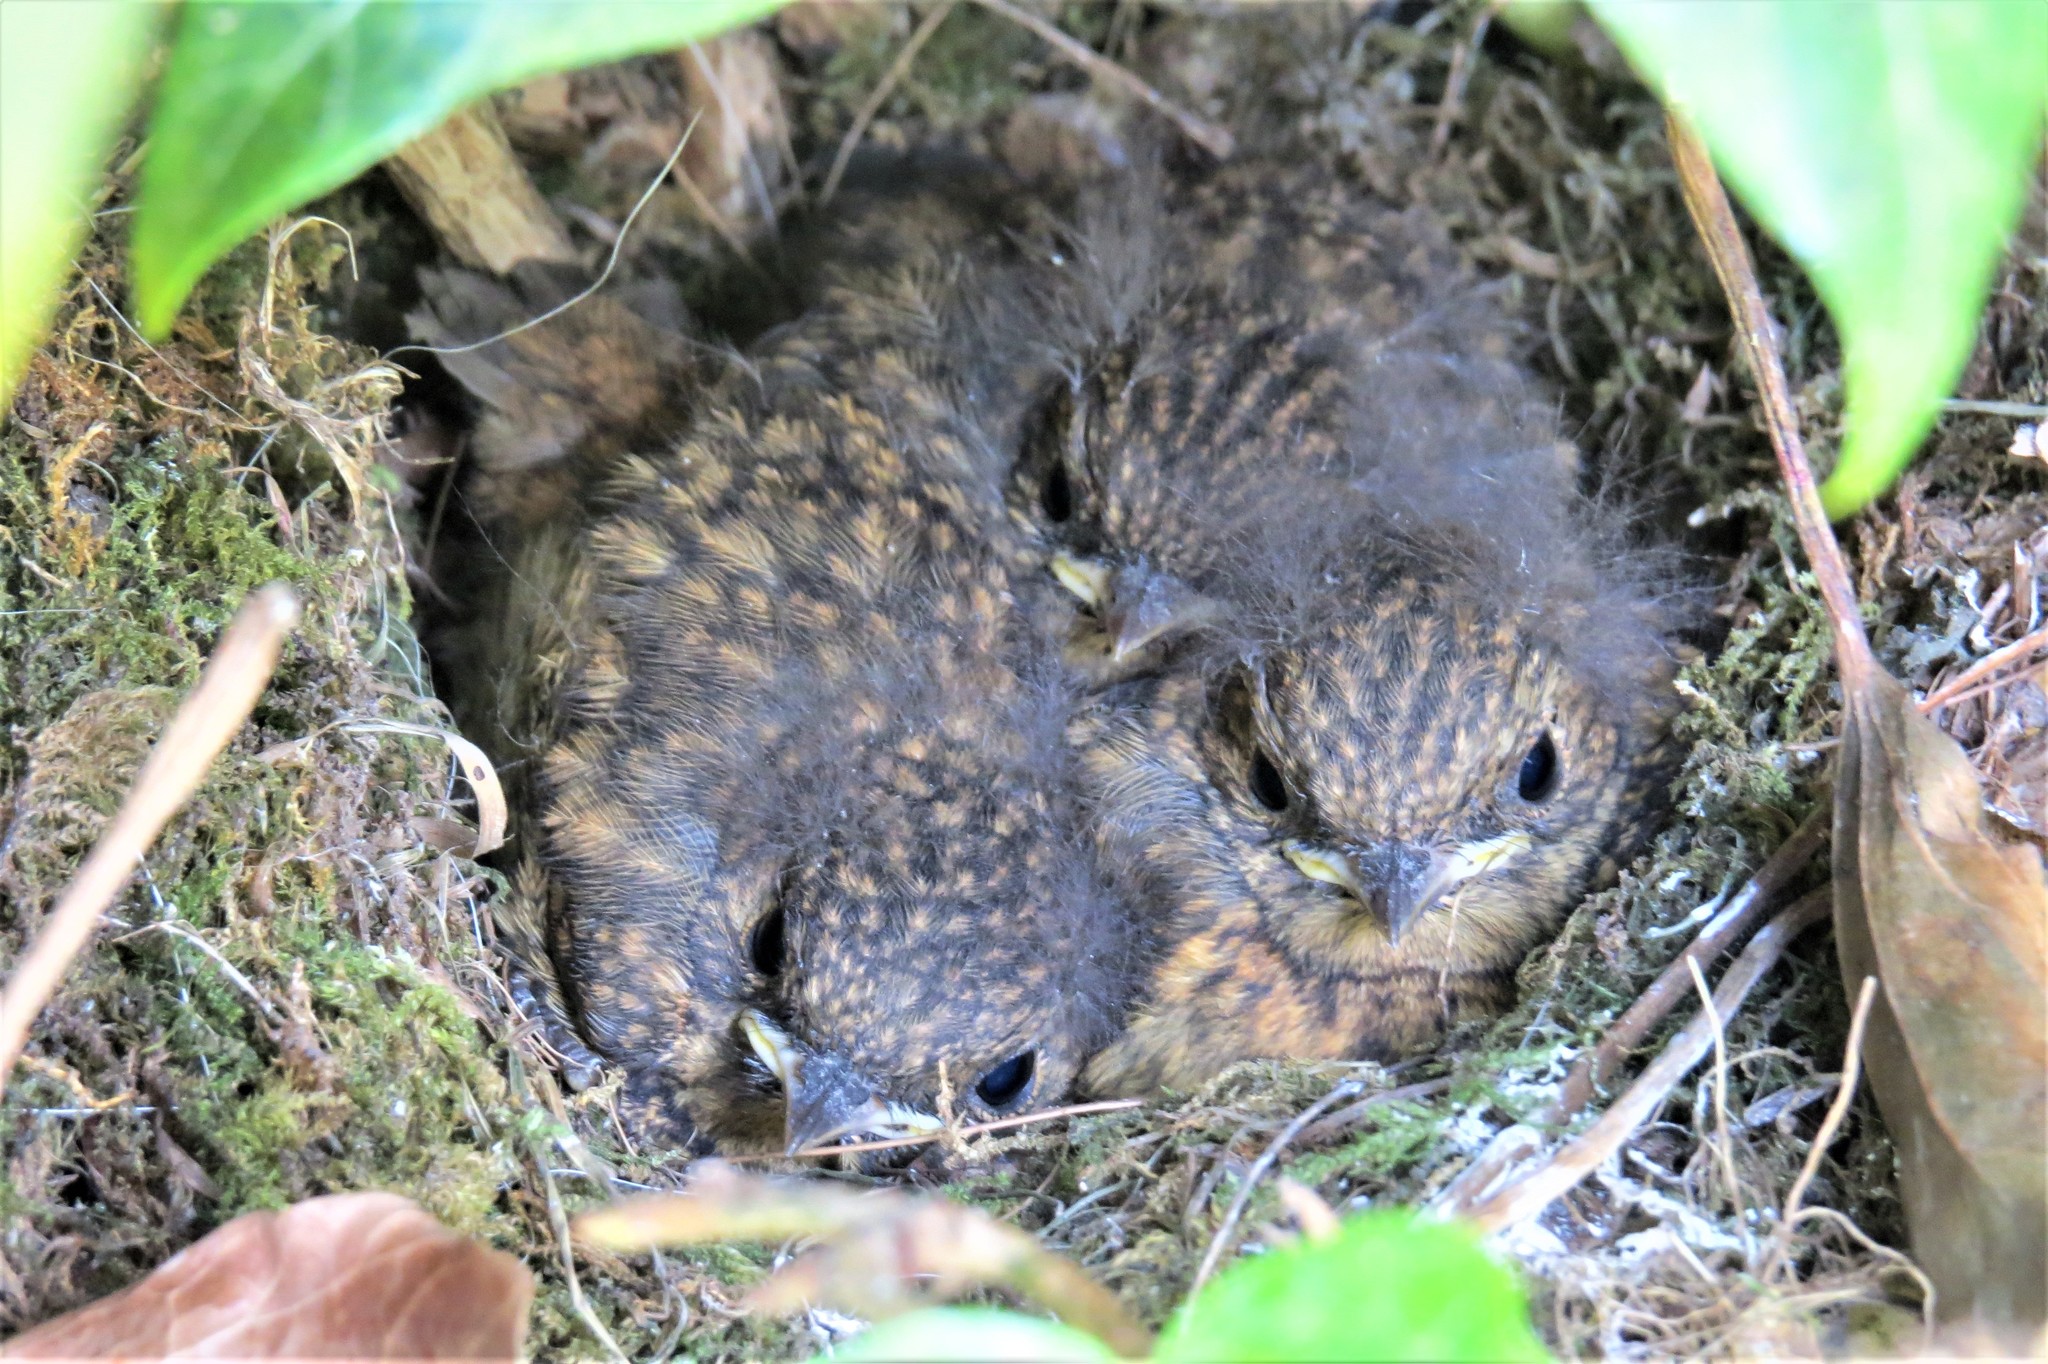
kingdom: Animalia
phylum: Chordata
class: Aves
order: Passeriformes
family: Muscicapidae
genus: Erithacus
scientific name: Erithacus rubecula
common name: European robin
